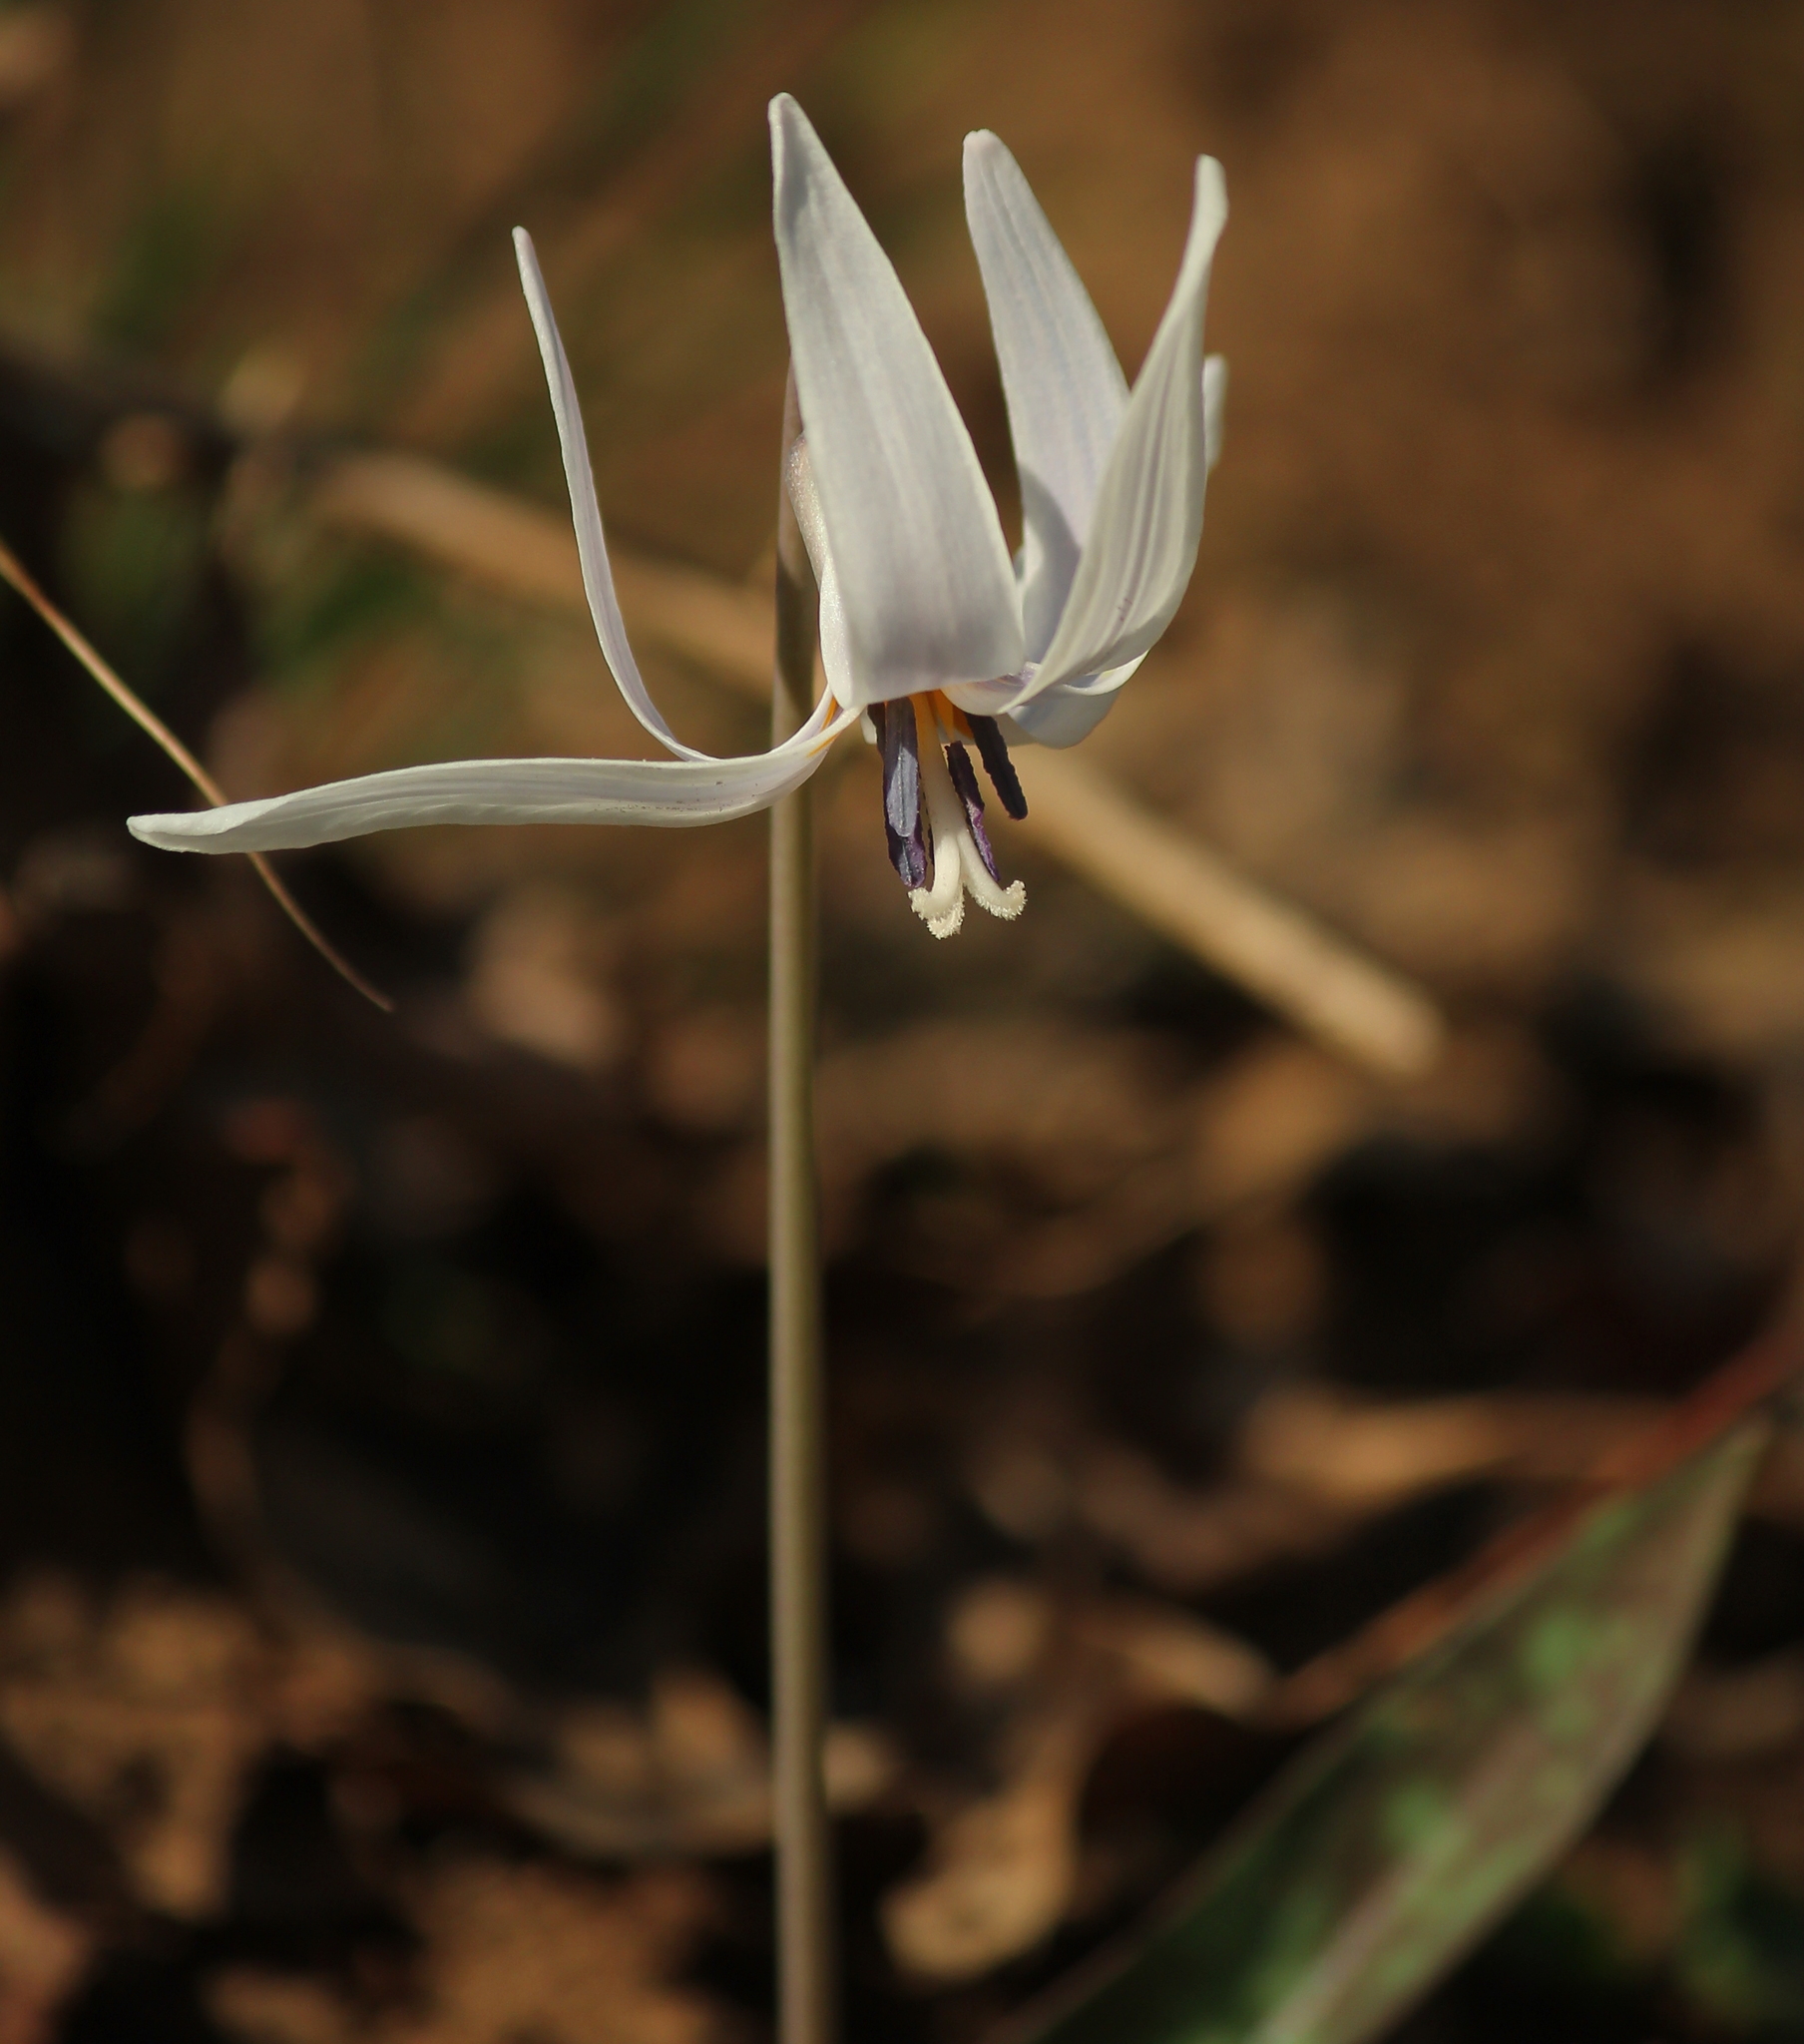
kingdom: Plantae
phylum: Tracheophyta
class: Liliopsida
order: Liliales
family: Liliaceae
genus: Erythronium
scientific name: Erythronium albidum
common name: White trout-lily
